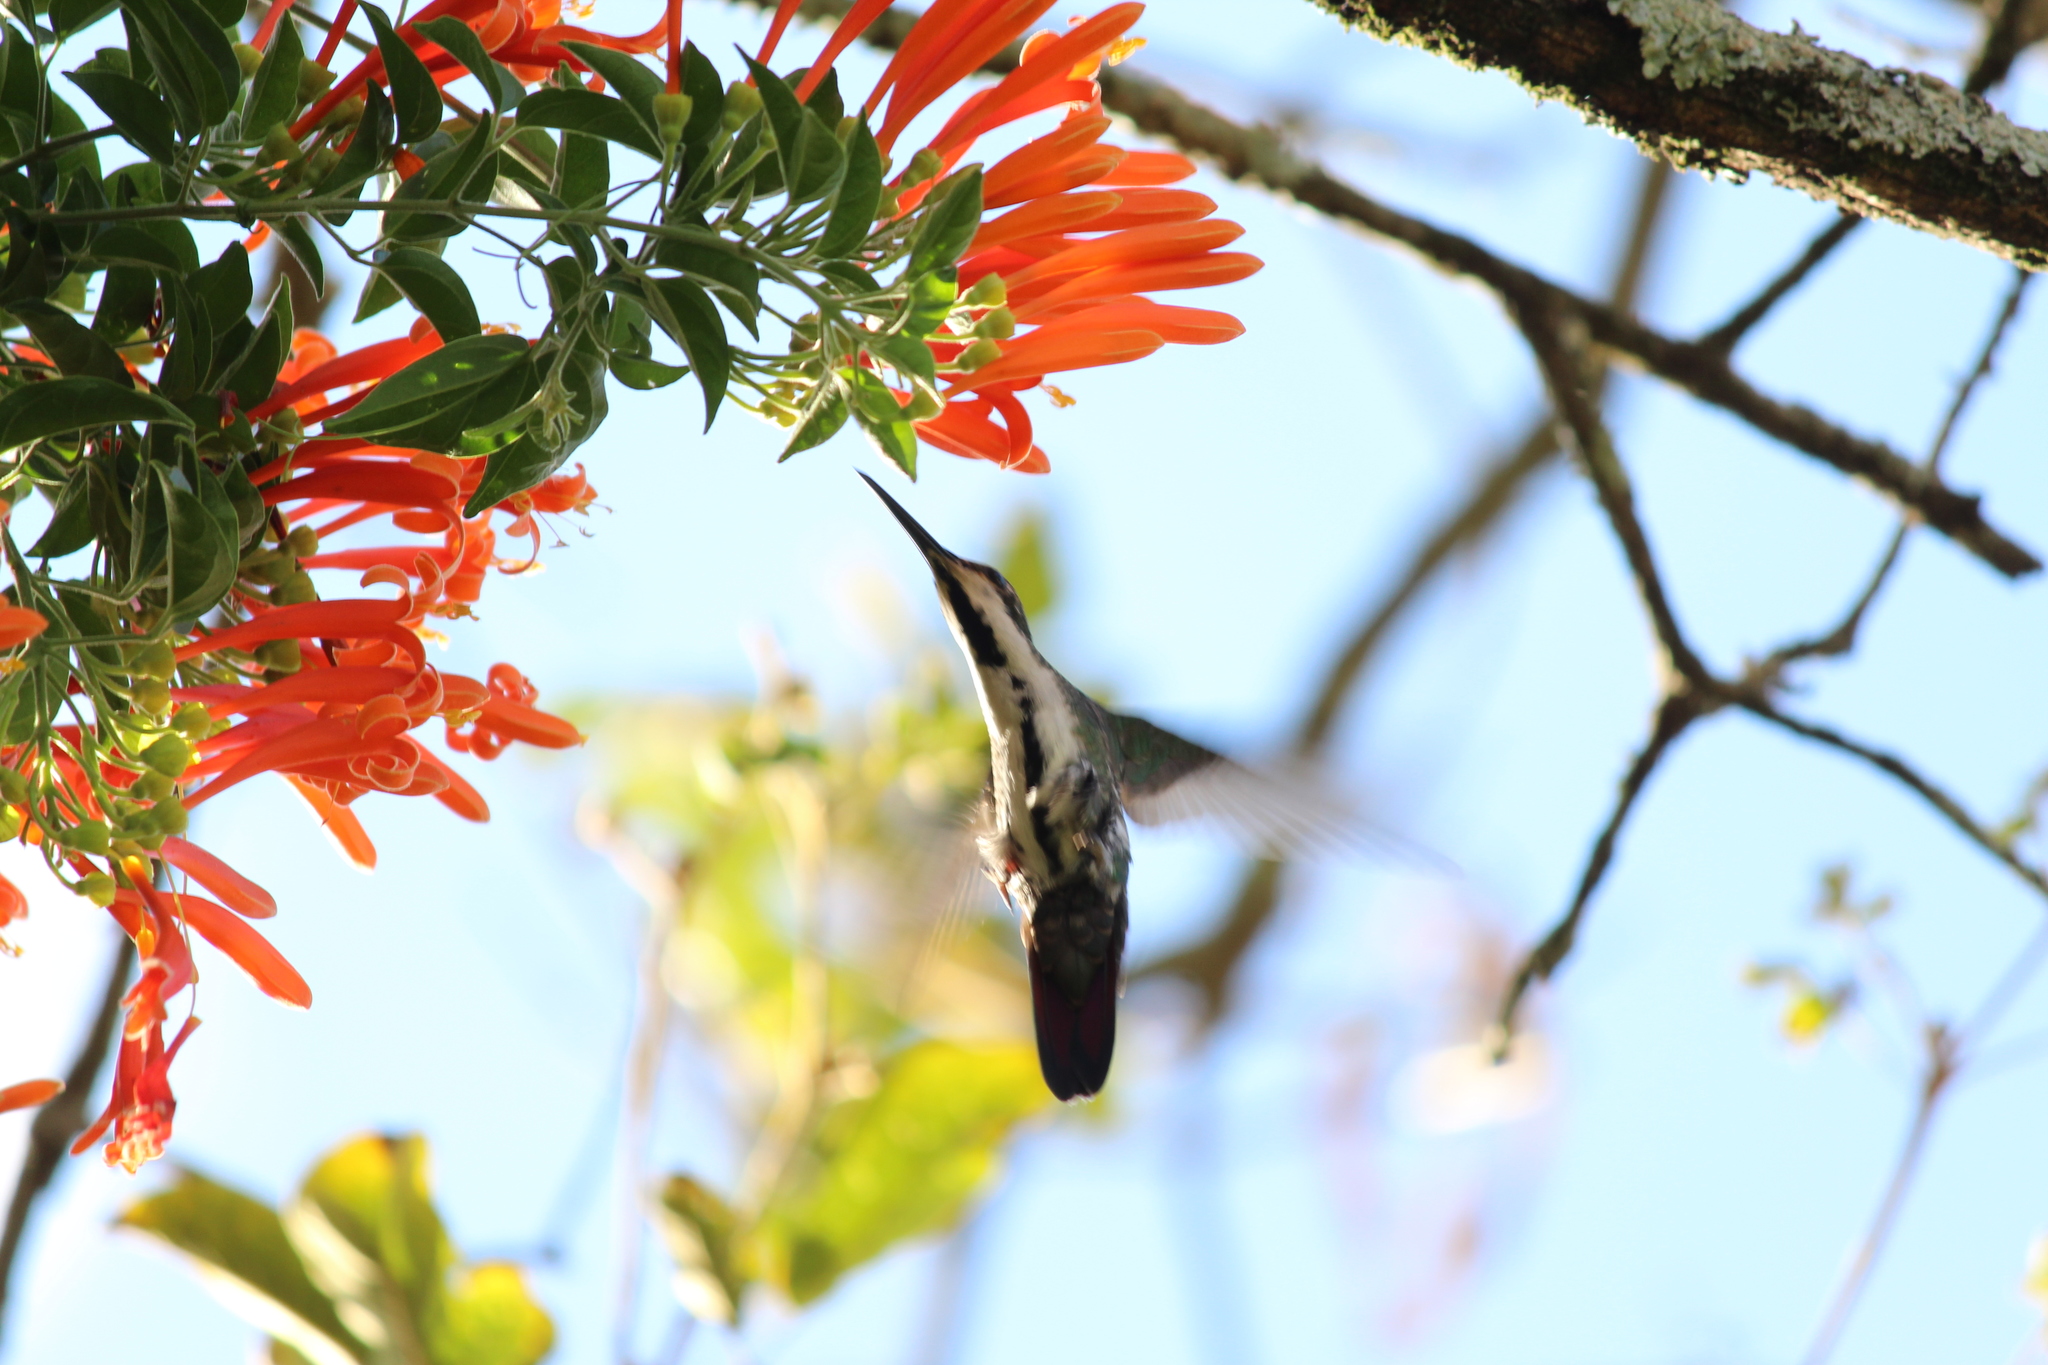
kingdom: Animalia
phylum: Chordata
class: Aves
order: Apodiformes
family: Trochilidae
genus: Anthracothorax
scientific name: Anthracothorax nigricollis
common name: Black-throated mango
